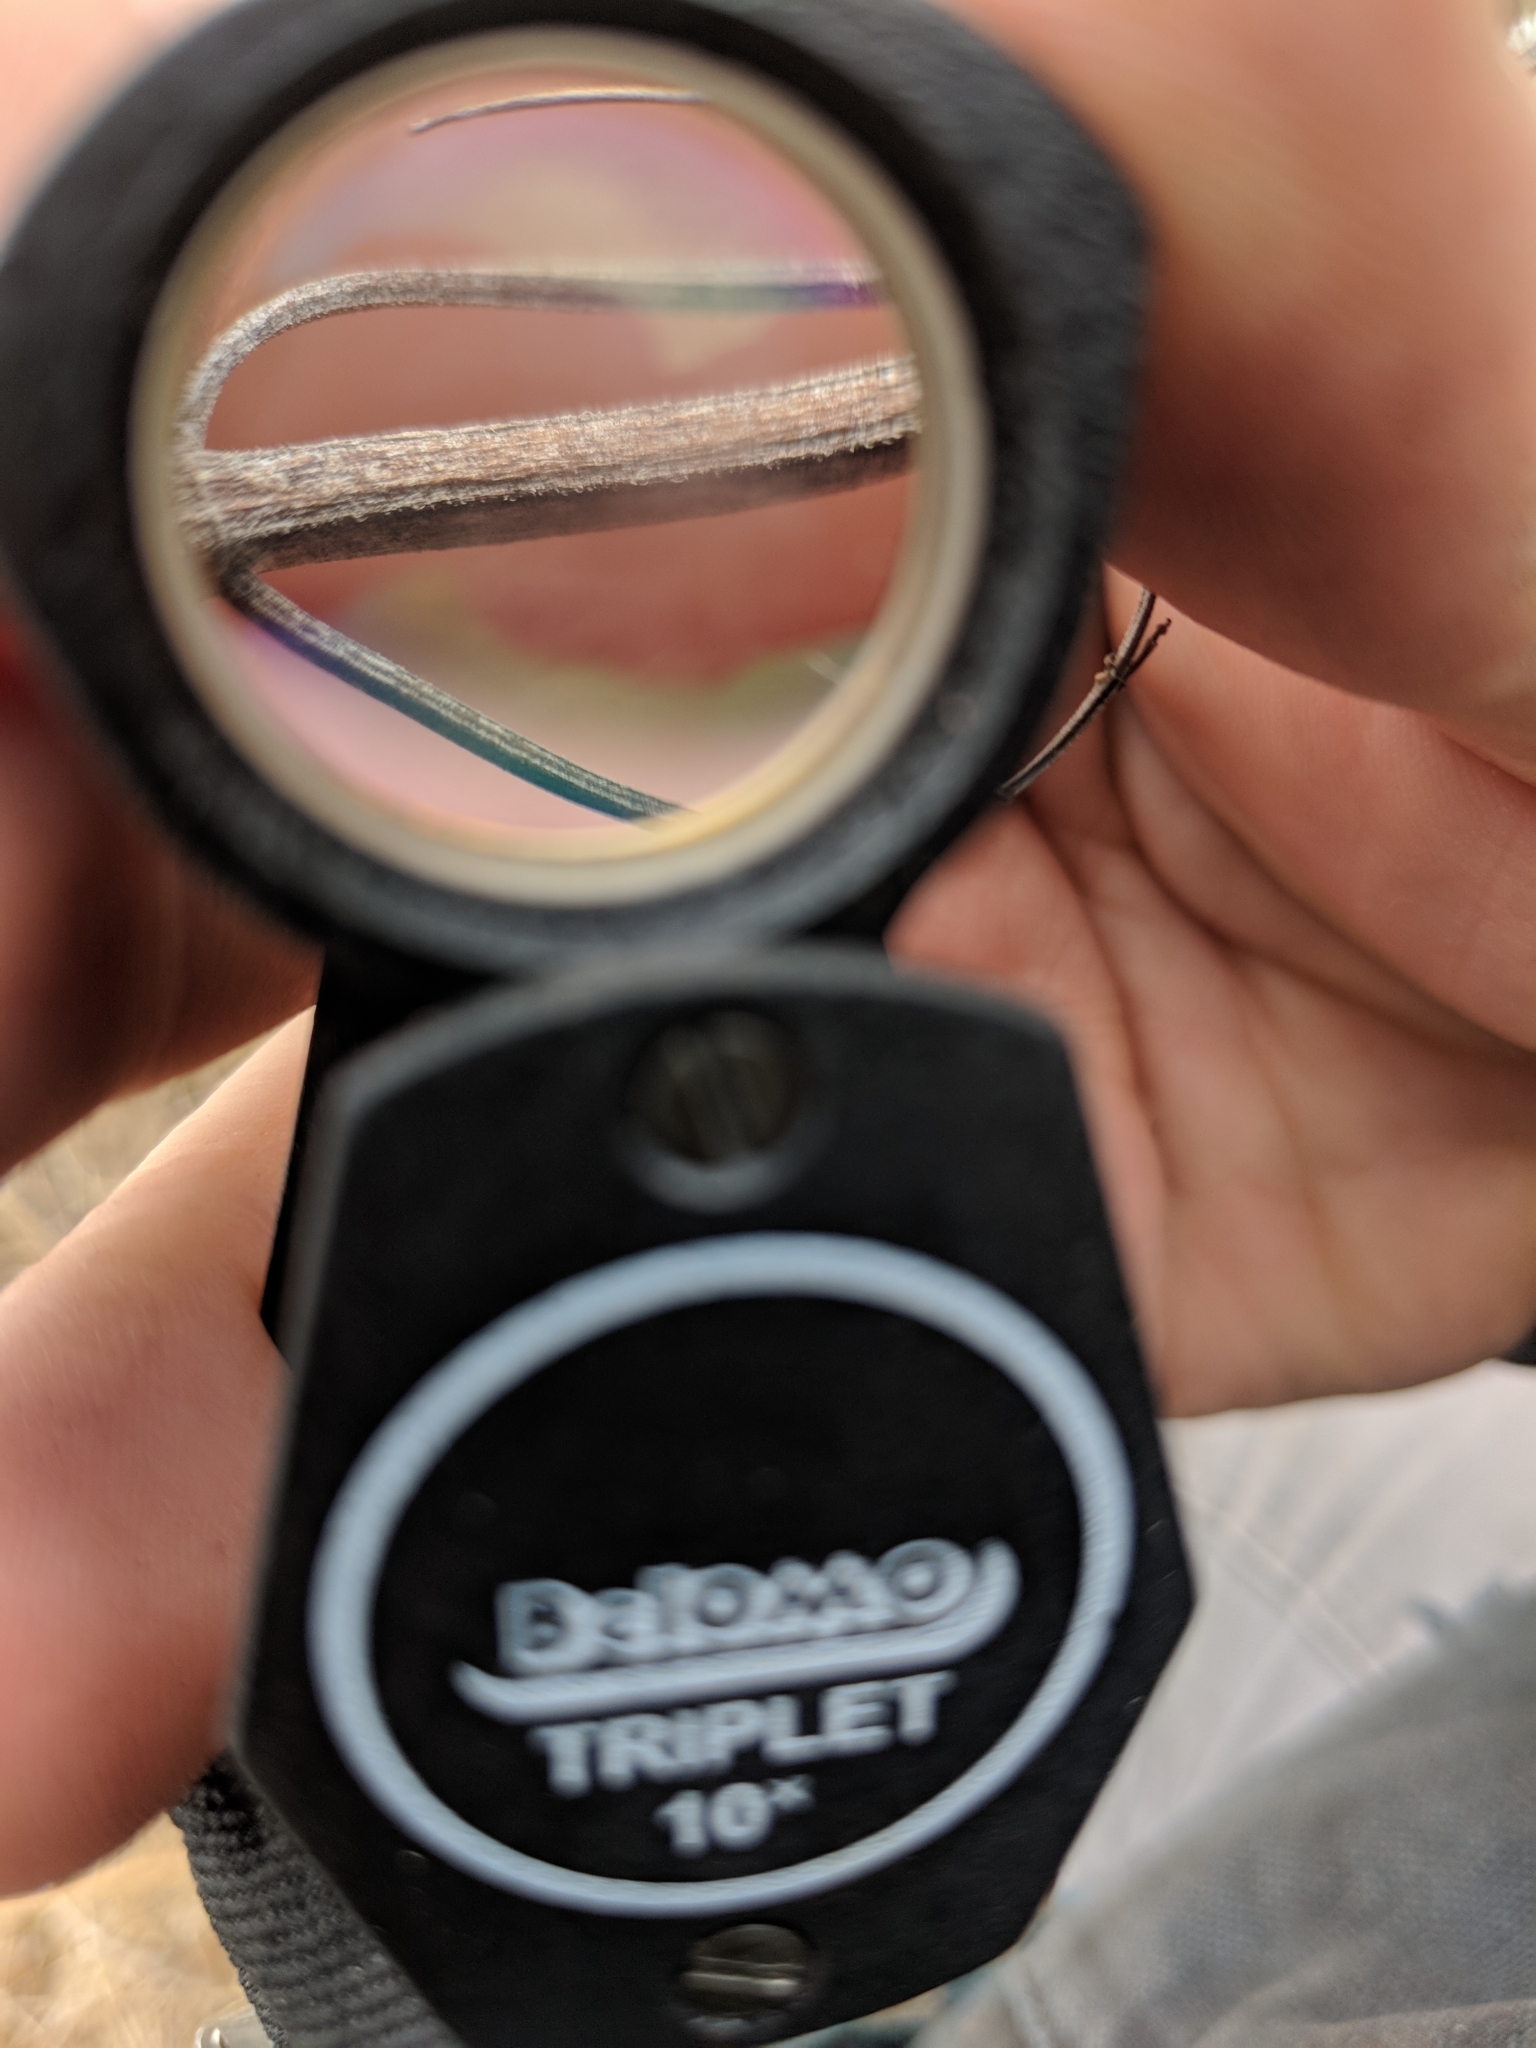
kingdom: Plantae
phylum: Tracheophyta
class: Magnoliopsida
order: Lamiales
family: Lamiaceae
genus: Pycnanthemum
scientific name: Pycnanthemum virginianum
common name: Virginia mountain-mint
